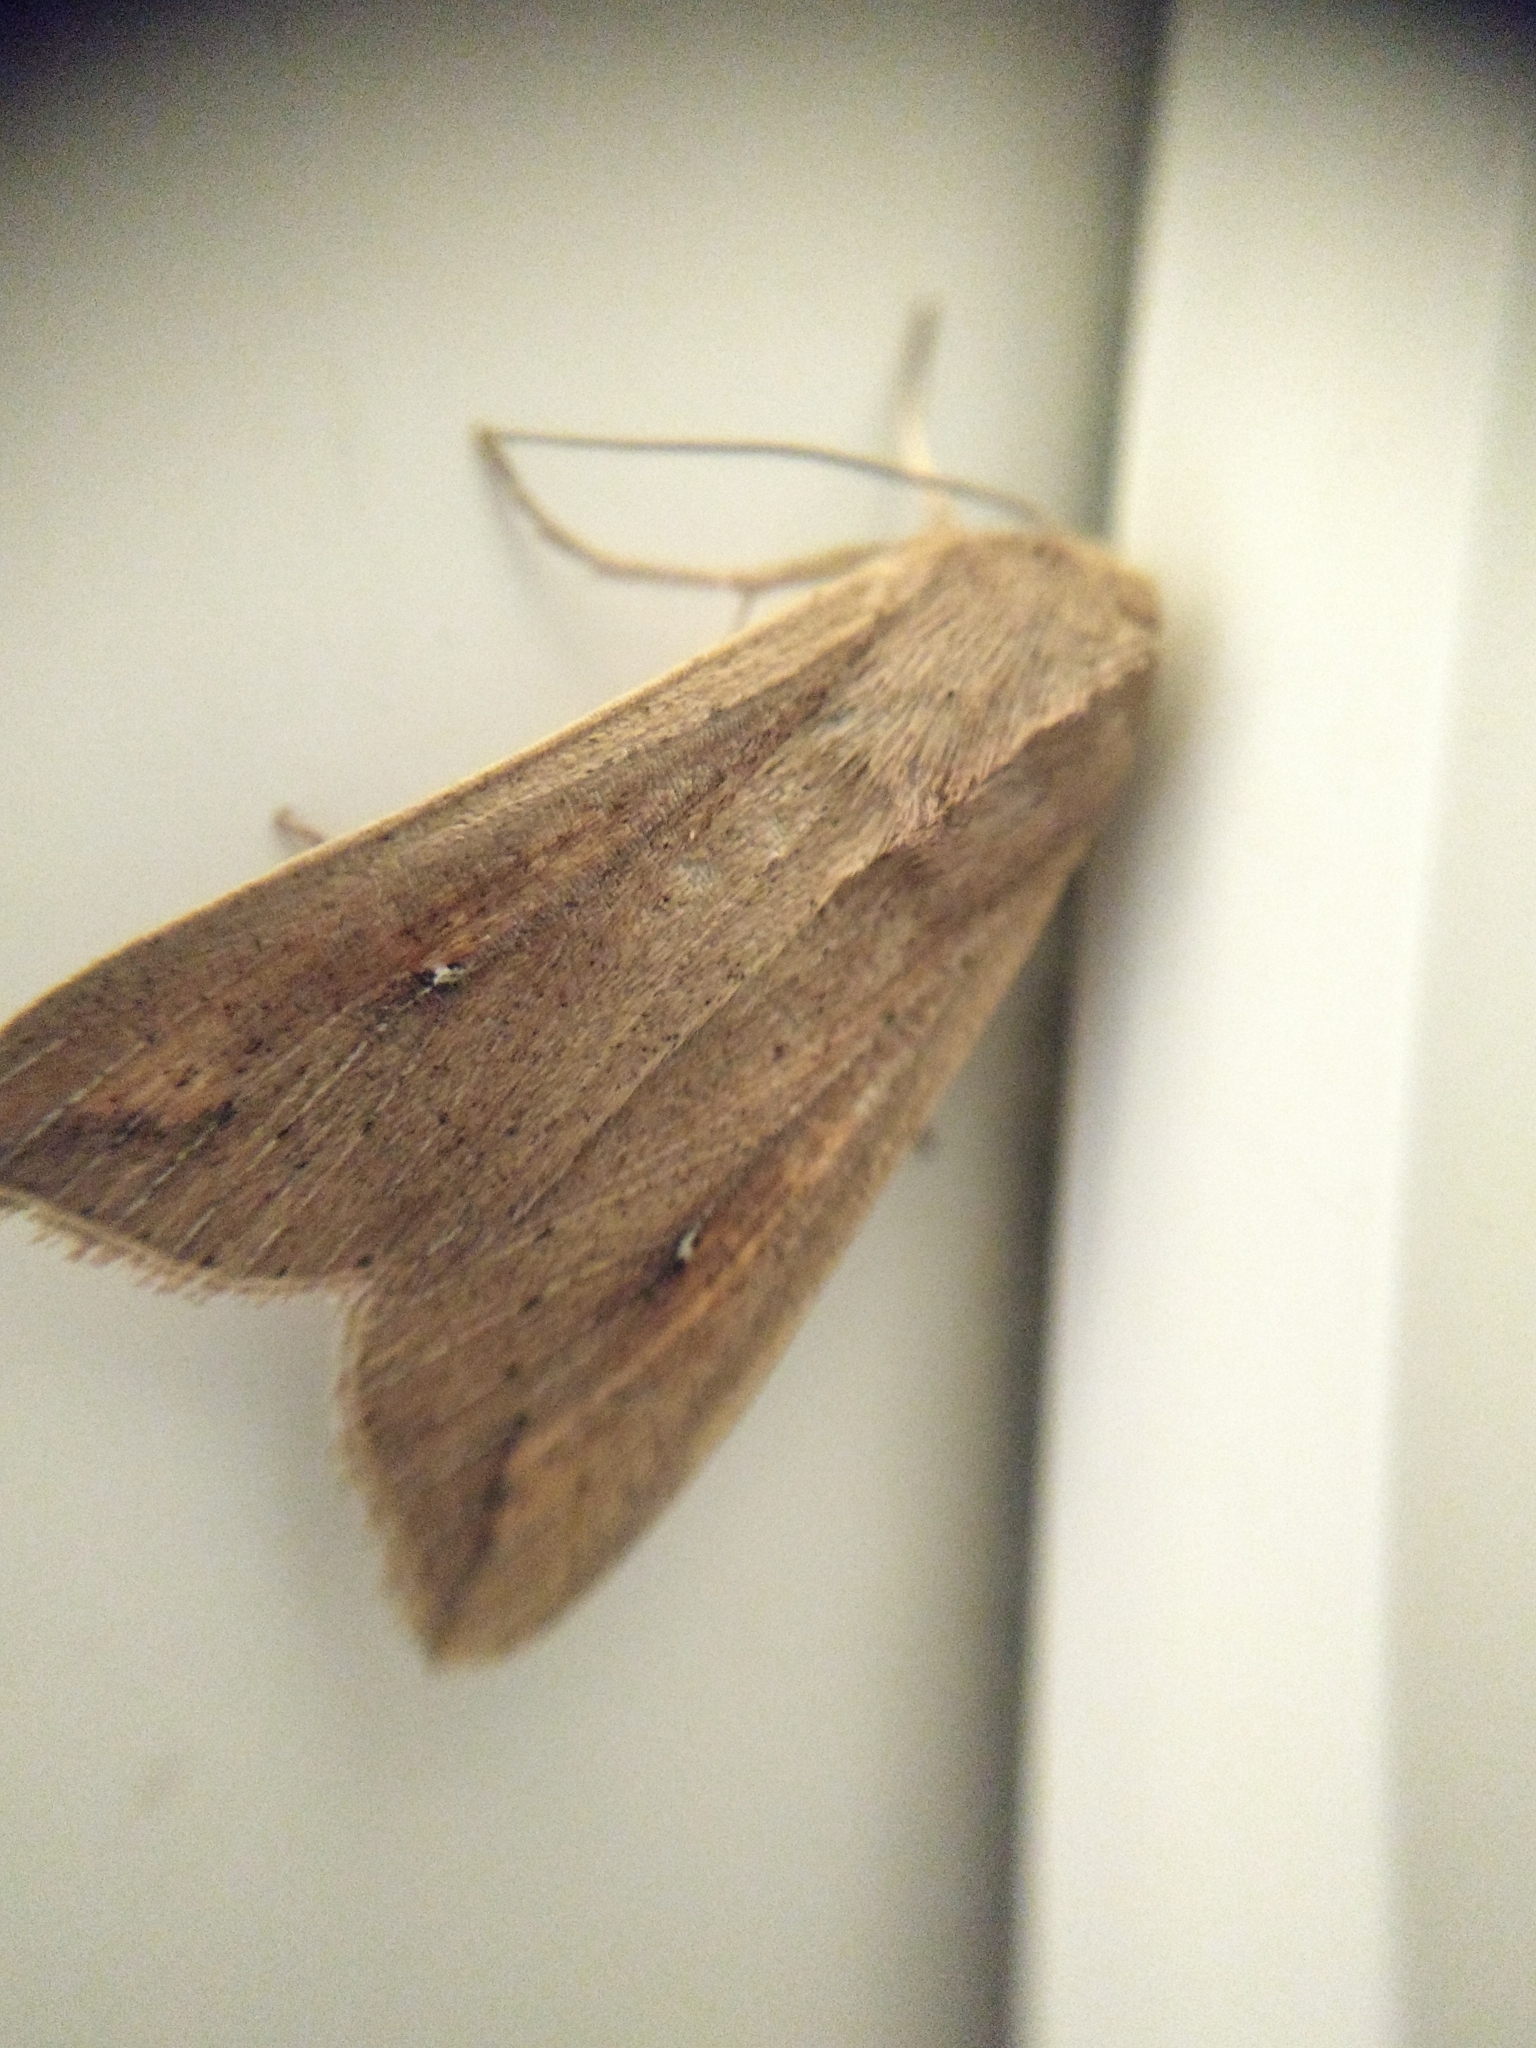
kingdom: Animalia
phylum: Arthropoda
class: Insecta
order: Lepidoptera
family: Noctuidae
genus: Mythimna
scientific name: Mythimna unipuncta
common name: White-speck
